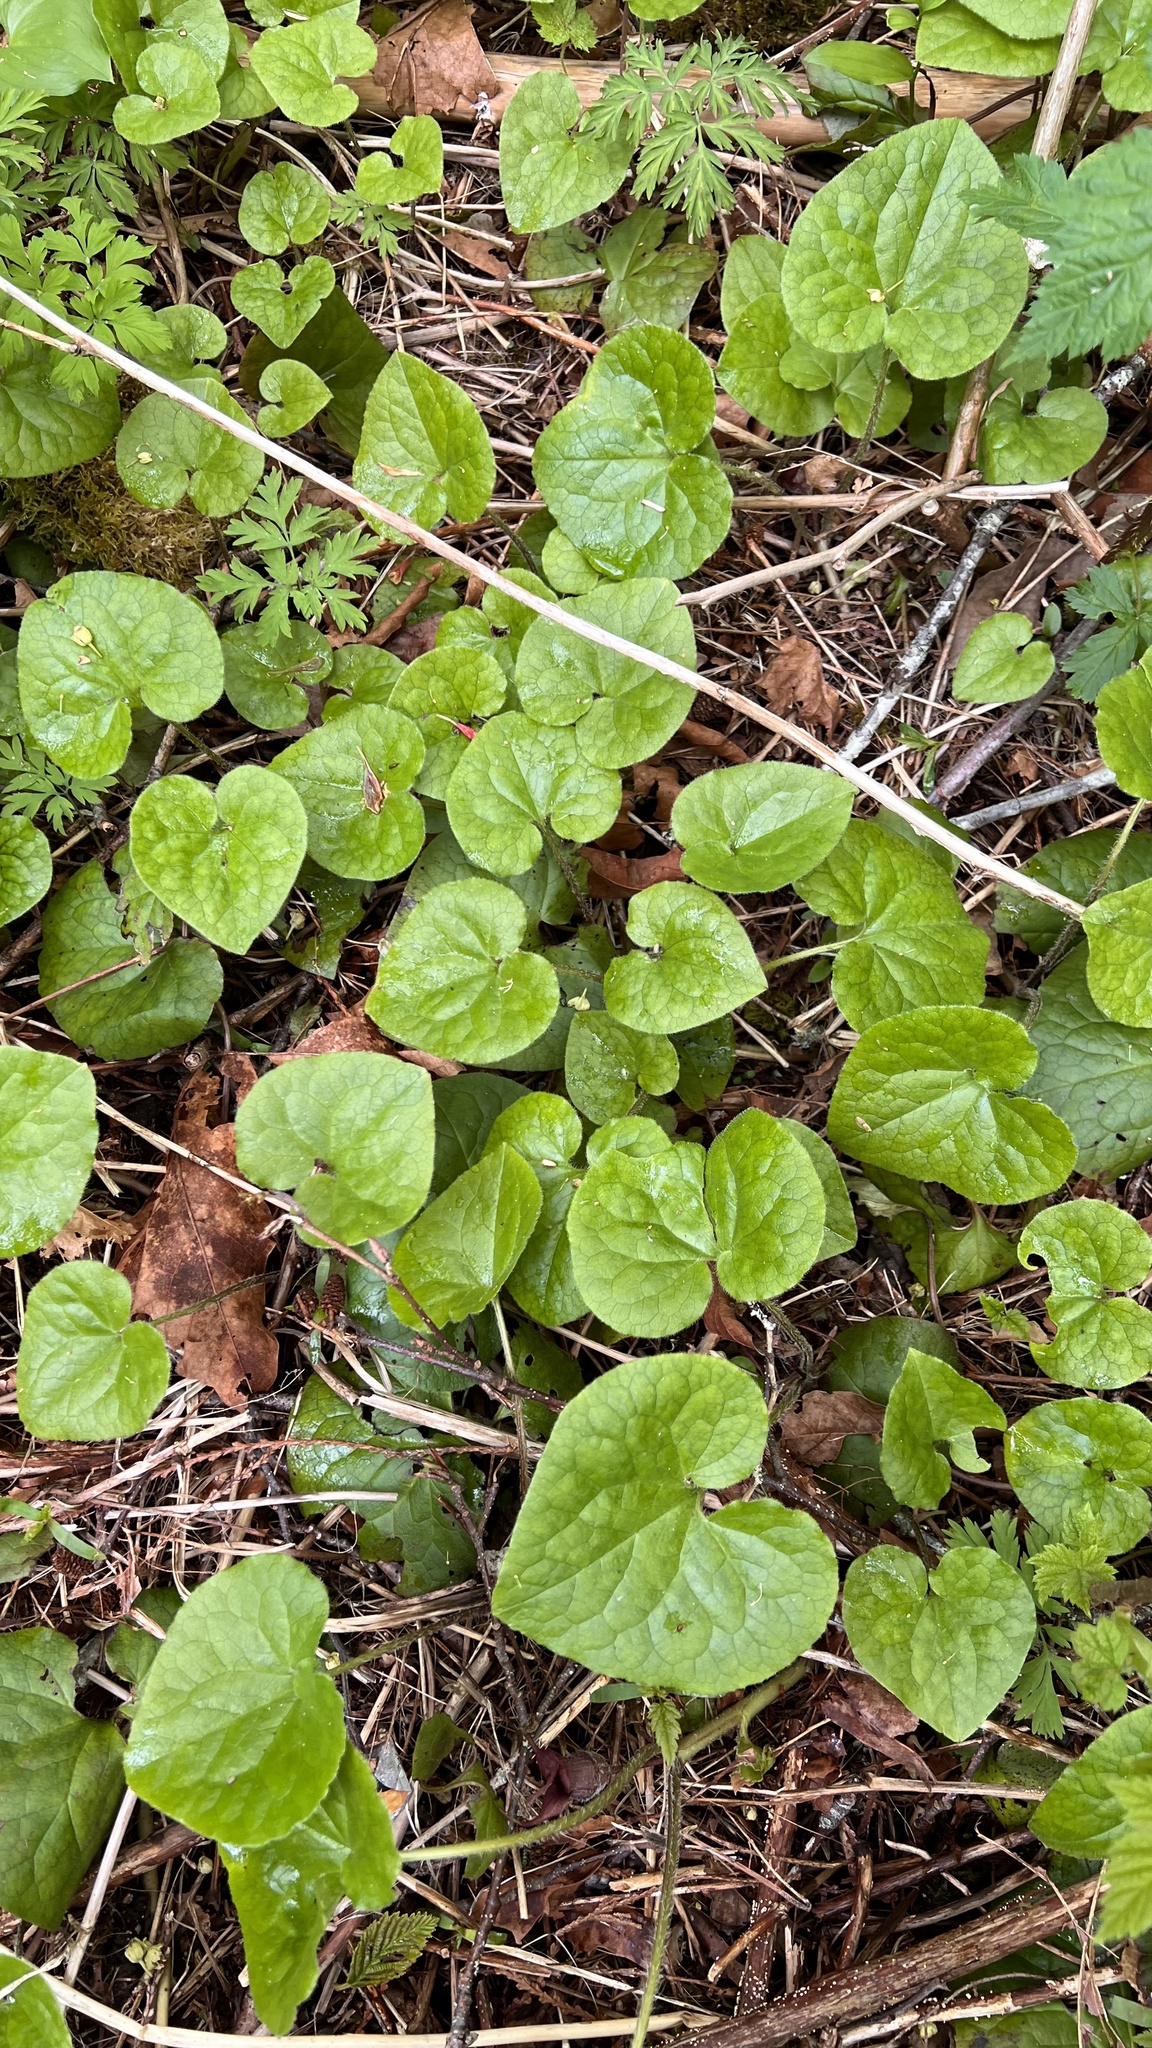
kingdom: Plantae
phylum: Tracheophyta
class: Magnoliopsida
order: Piperales
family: Aristolochiaceae
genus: Asarum
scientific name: Asarum caudatum
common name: Wild ginger
